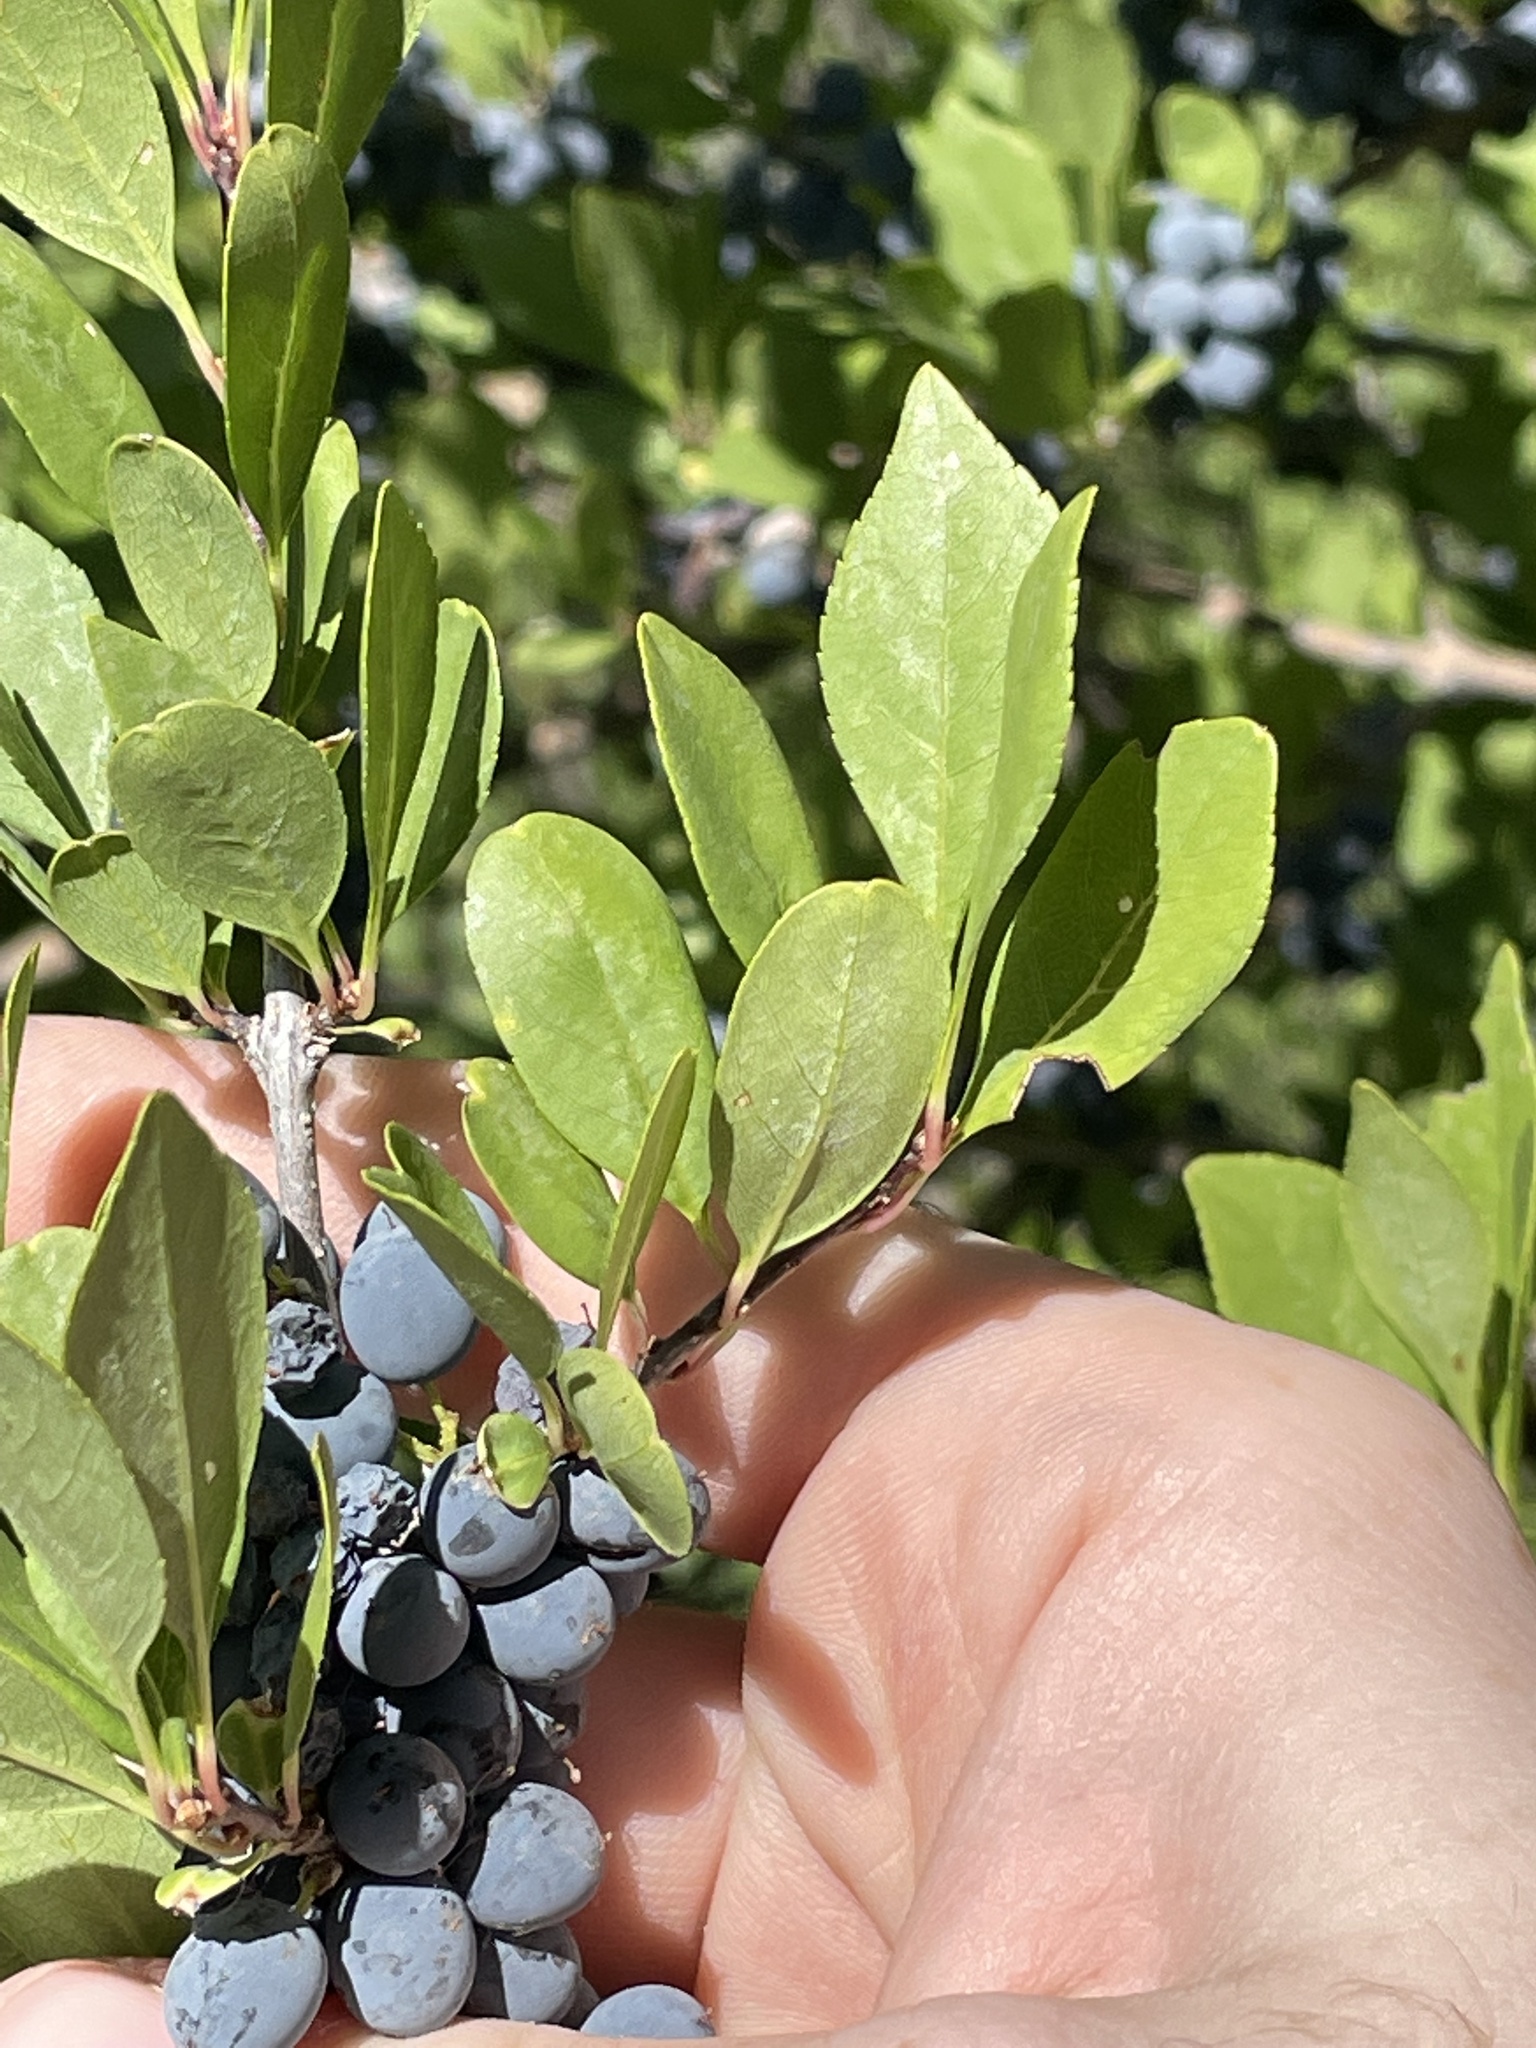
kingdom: Plantae
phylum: Tracheophyta
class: Magnoliopsida
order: Lamiales
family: Oleaceae
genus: Forestiera
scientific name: Forestiera pubescens
